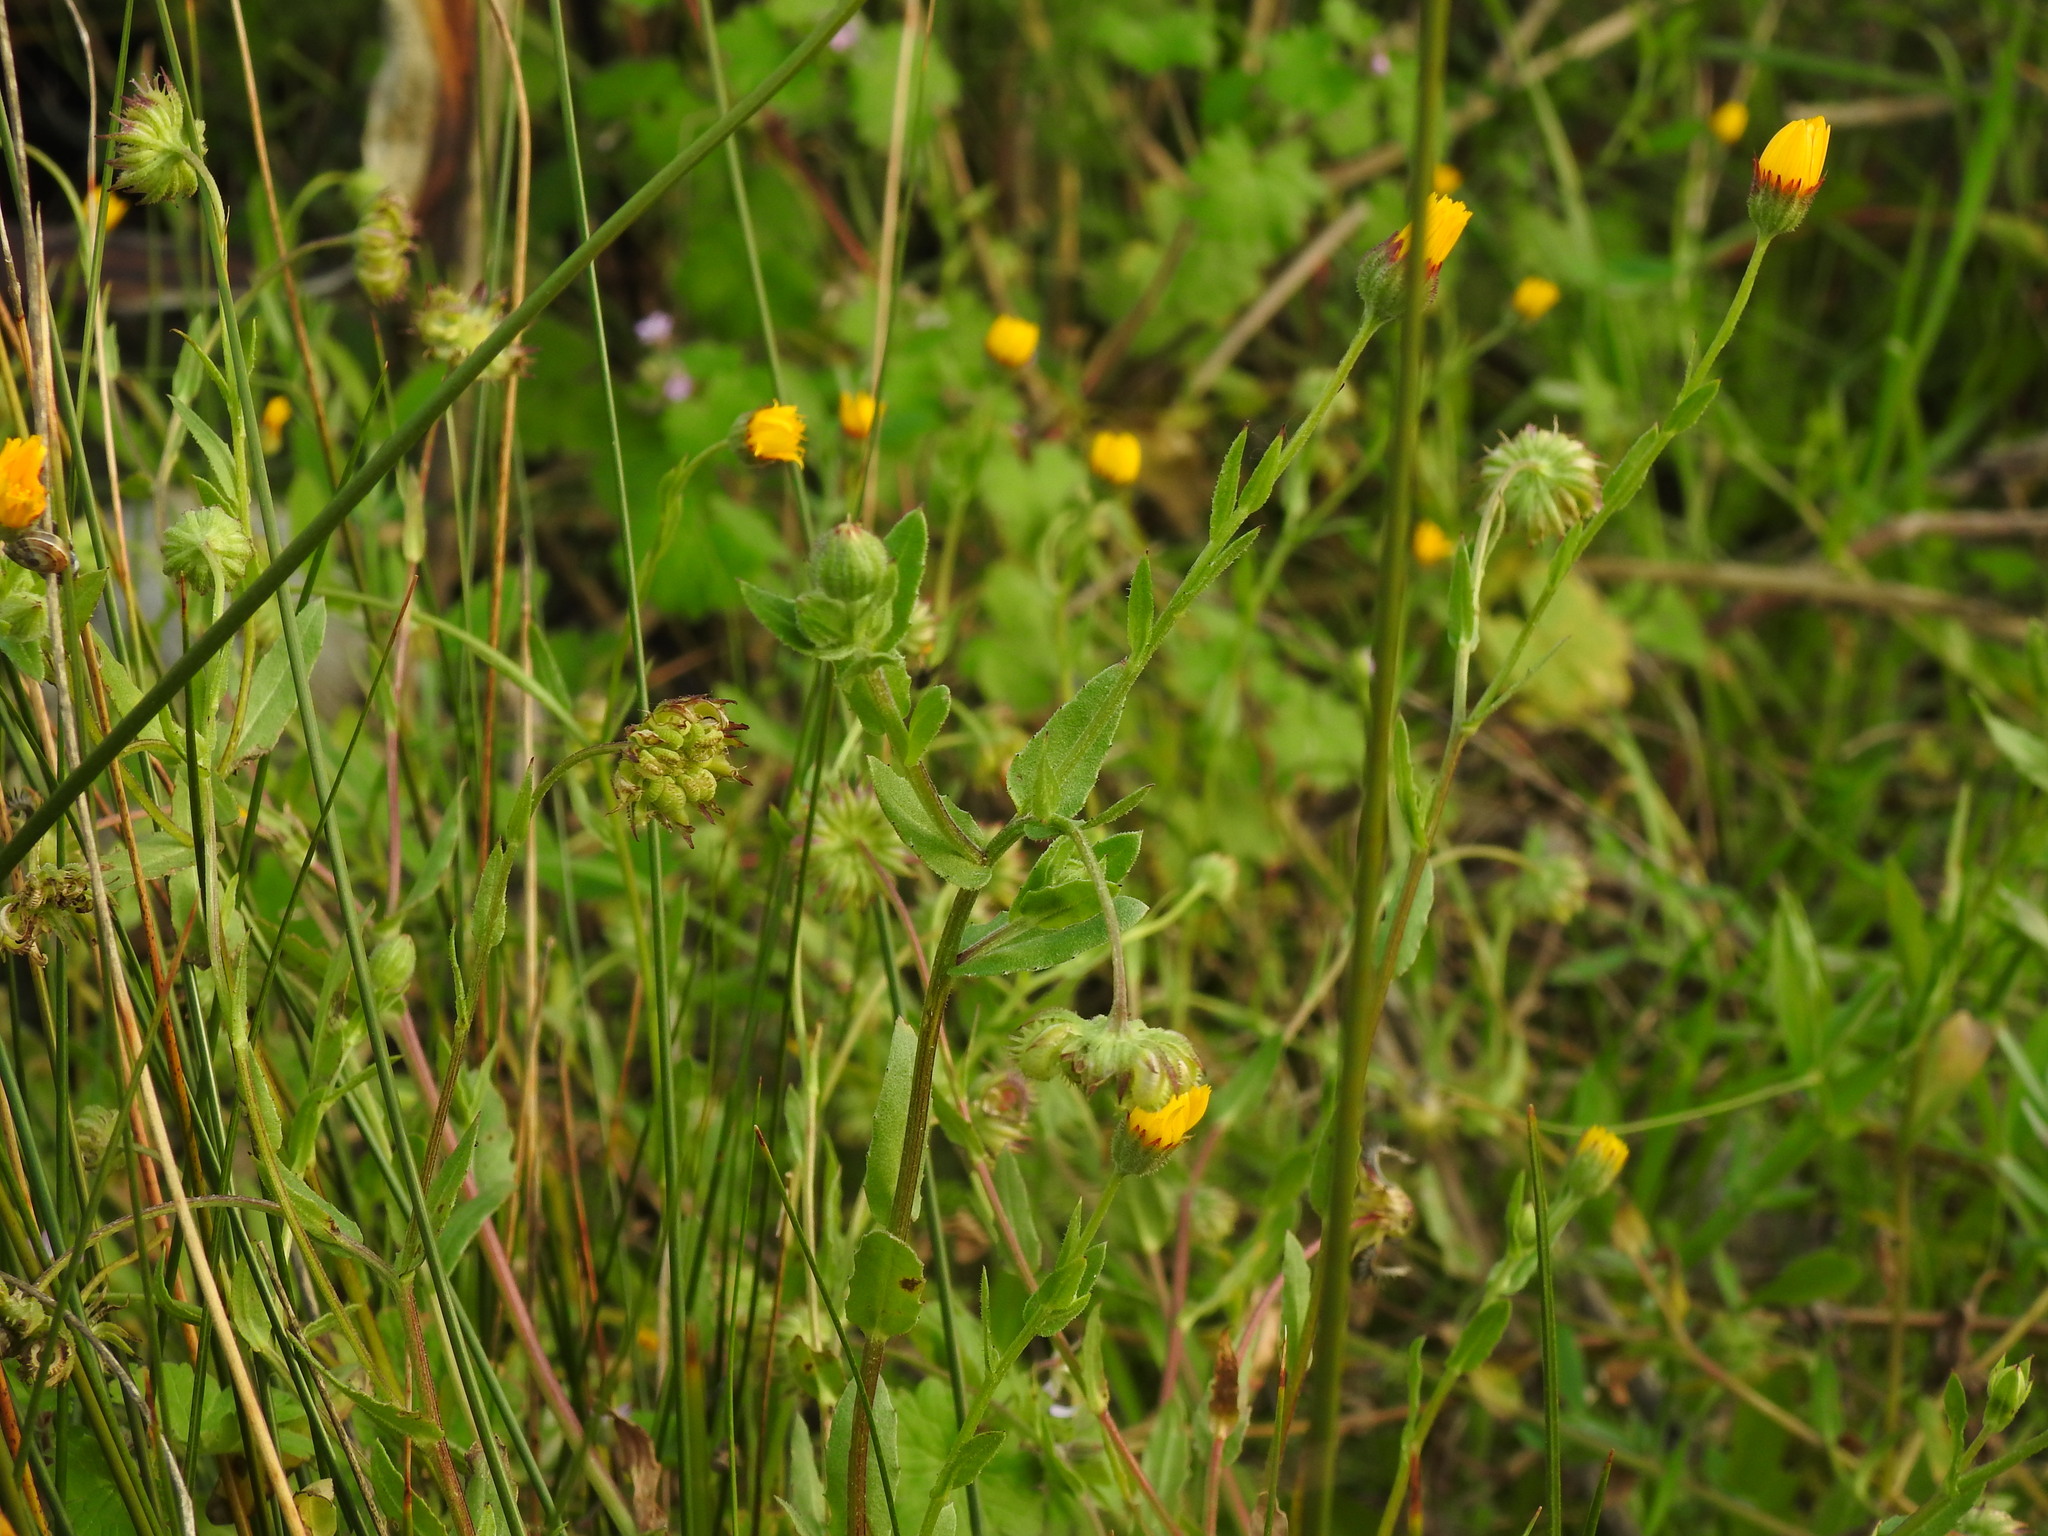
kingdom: Plantae
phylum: Tracheophyta
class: Magnoliopsida
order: Asterales
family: Asteraceae
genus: Calendula
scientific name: Calendula arvensis
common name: Field marigold
